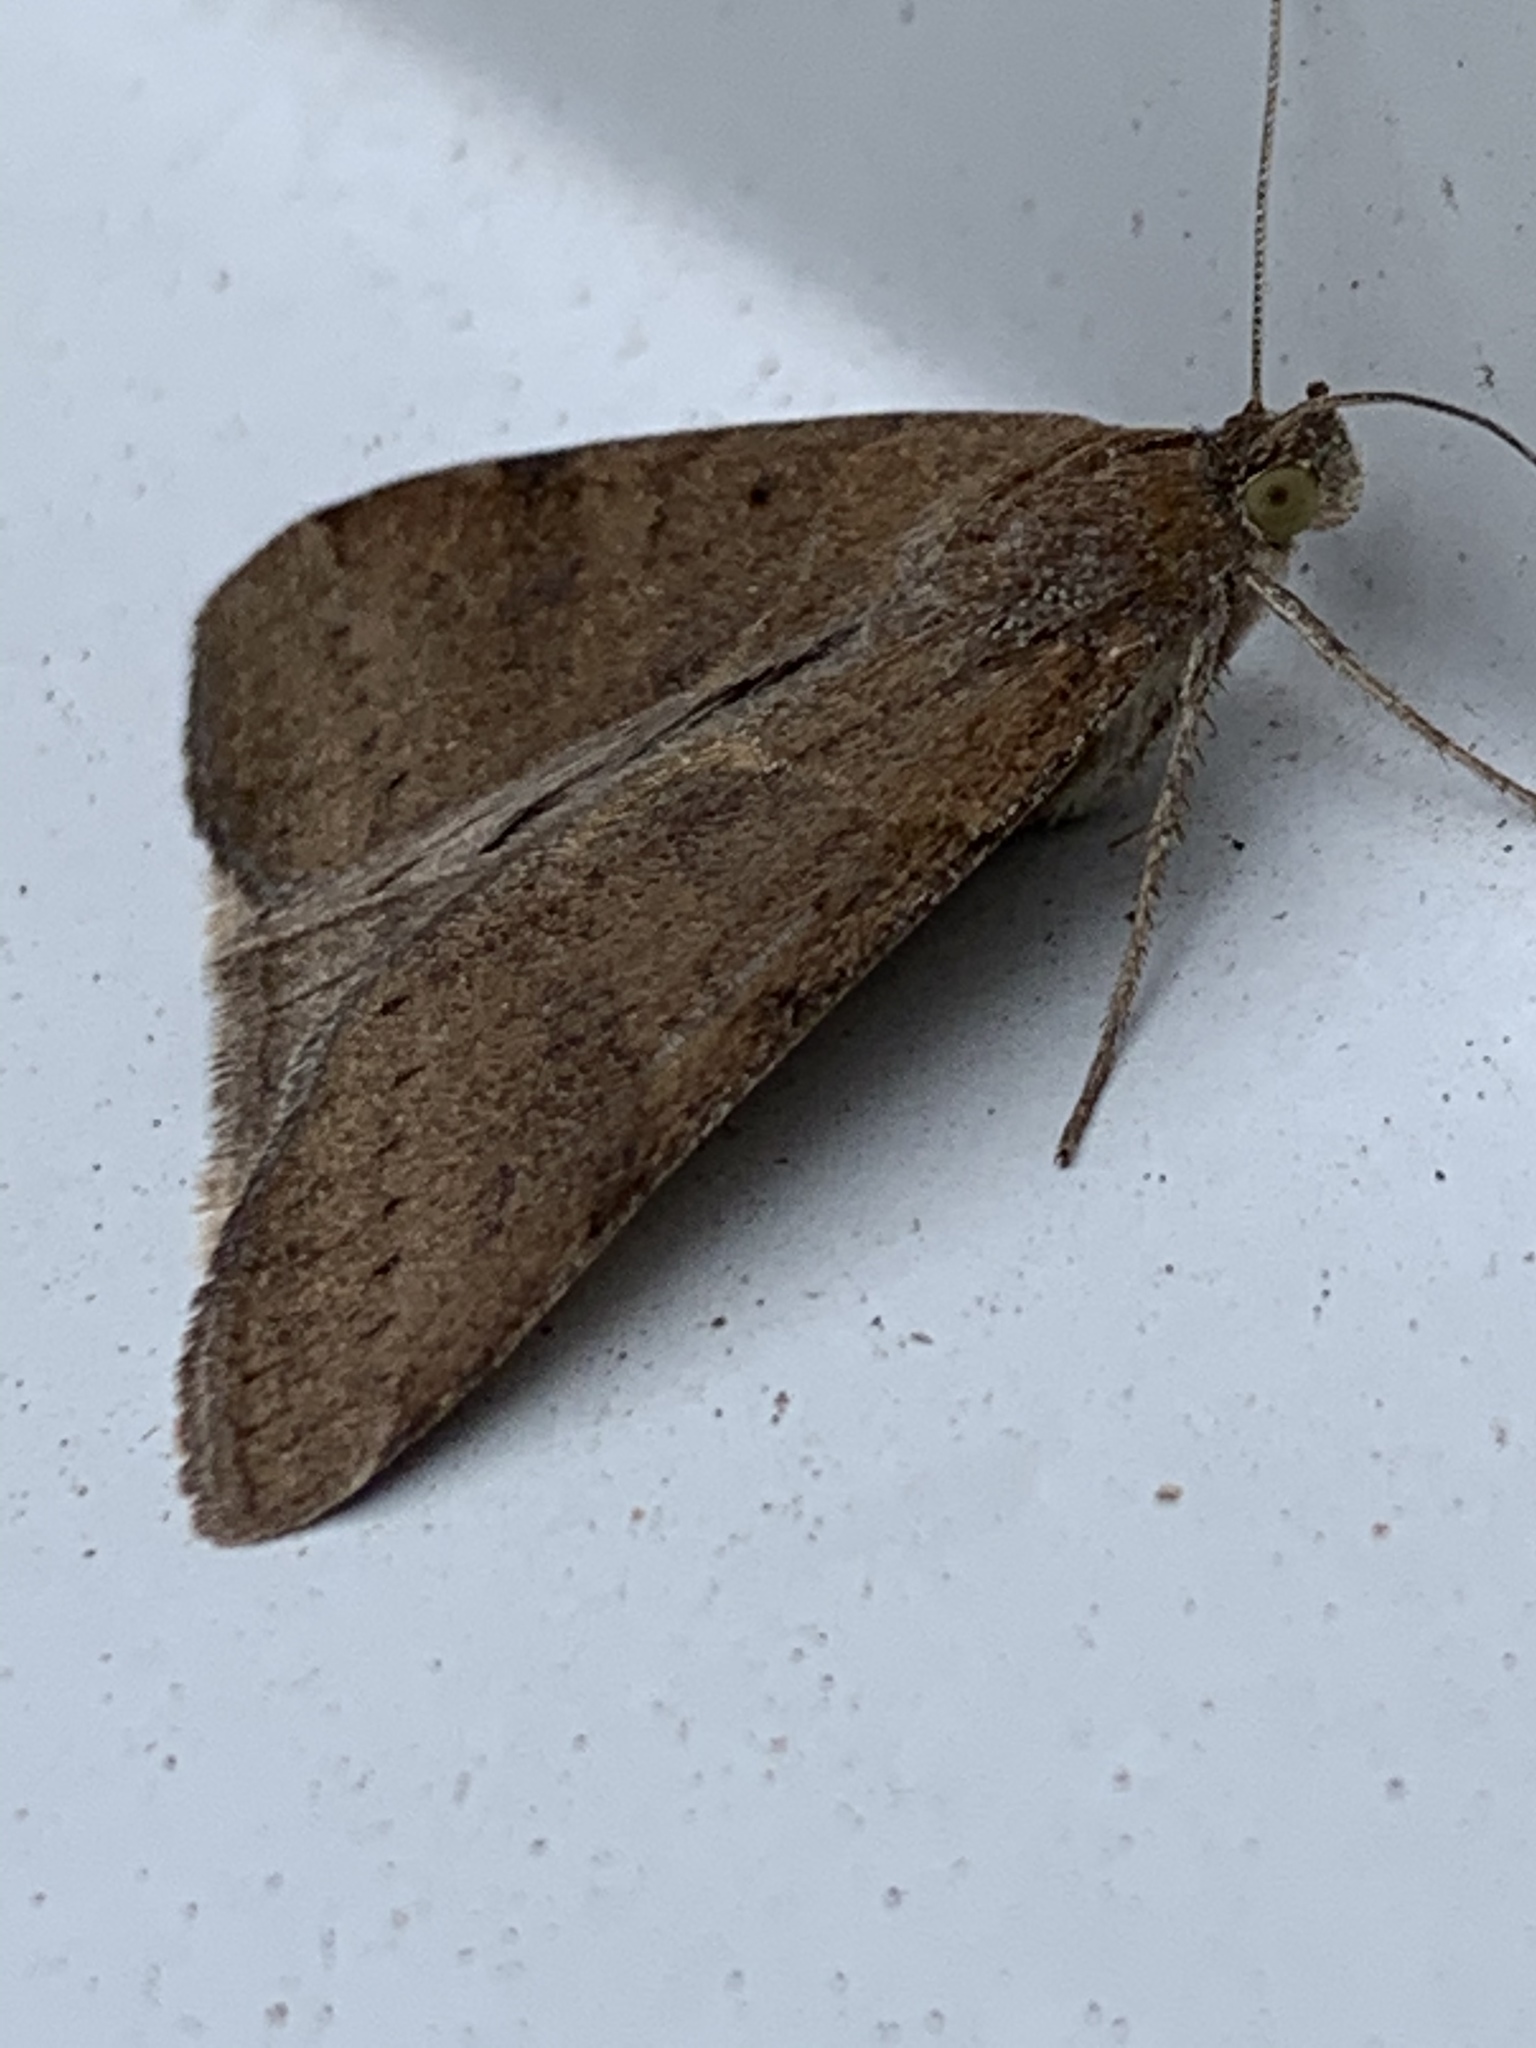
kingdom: Animalia
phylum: Arthropoda
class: Insecta
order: Lepidoptera
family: Erebidae
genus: Caenurgina
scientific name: Caenurgina erechtea
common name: Forage looper moth
